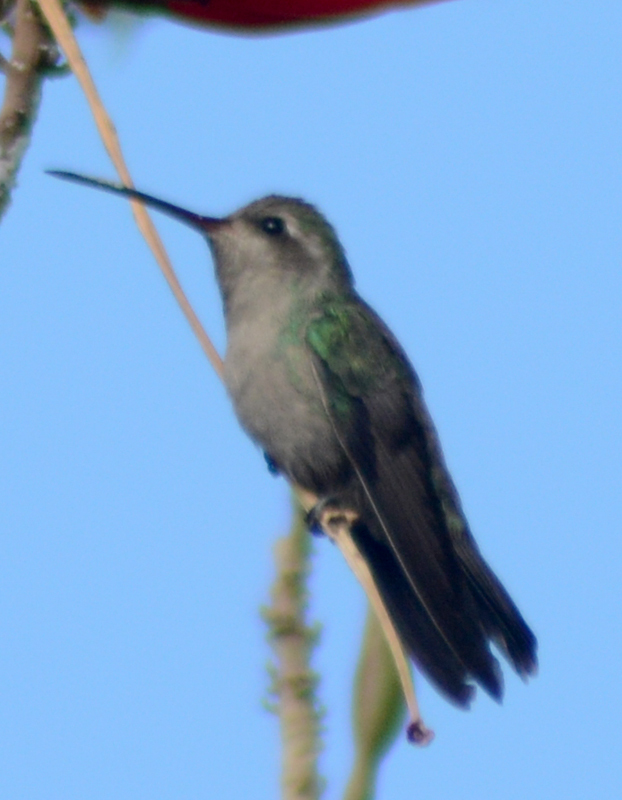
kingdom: Animalia
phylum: Chordata
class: Aves
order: Apodiformes
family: Trochilidae
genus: Cynanthus
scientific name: Cynanthus latirostris
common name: Broad-billed hummingbird
